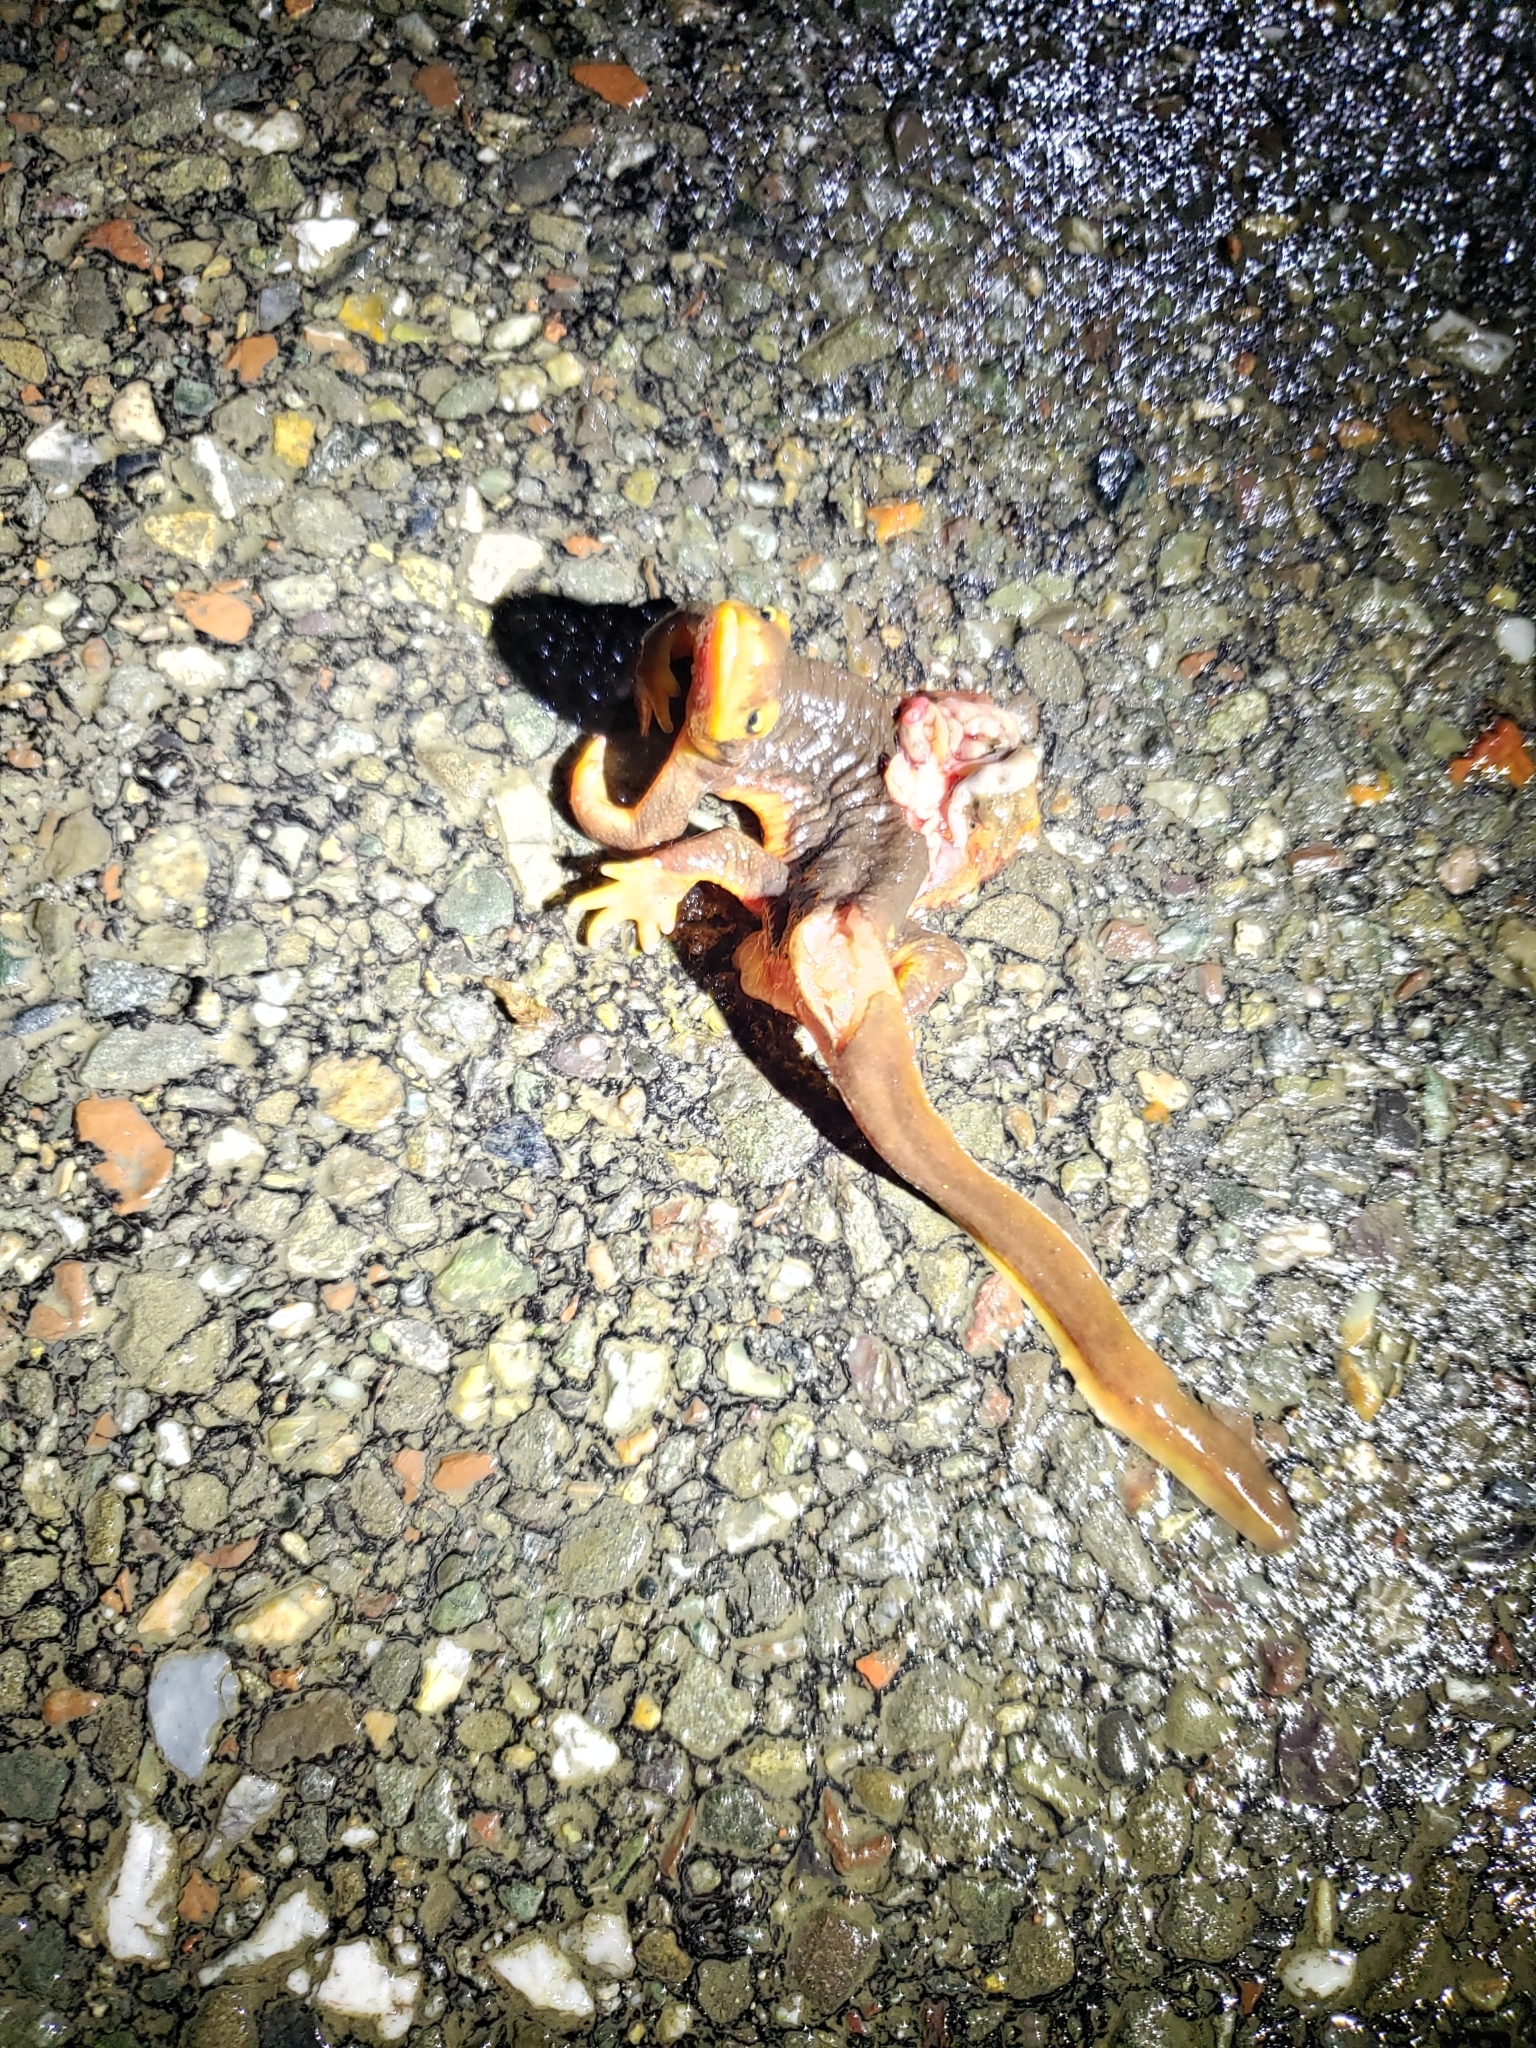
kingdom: Animalia
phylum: Chordata
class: Amphibia
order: Caudata
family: Salamandridae
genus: Taricha
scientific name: Taricha torosa
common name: California newt
